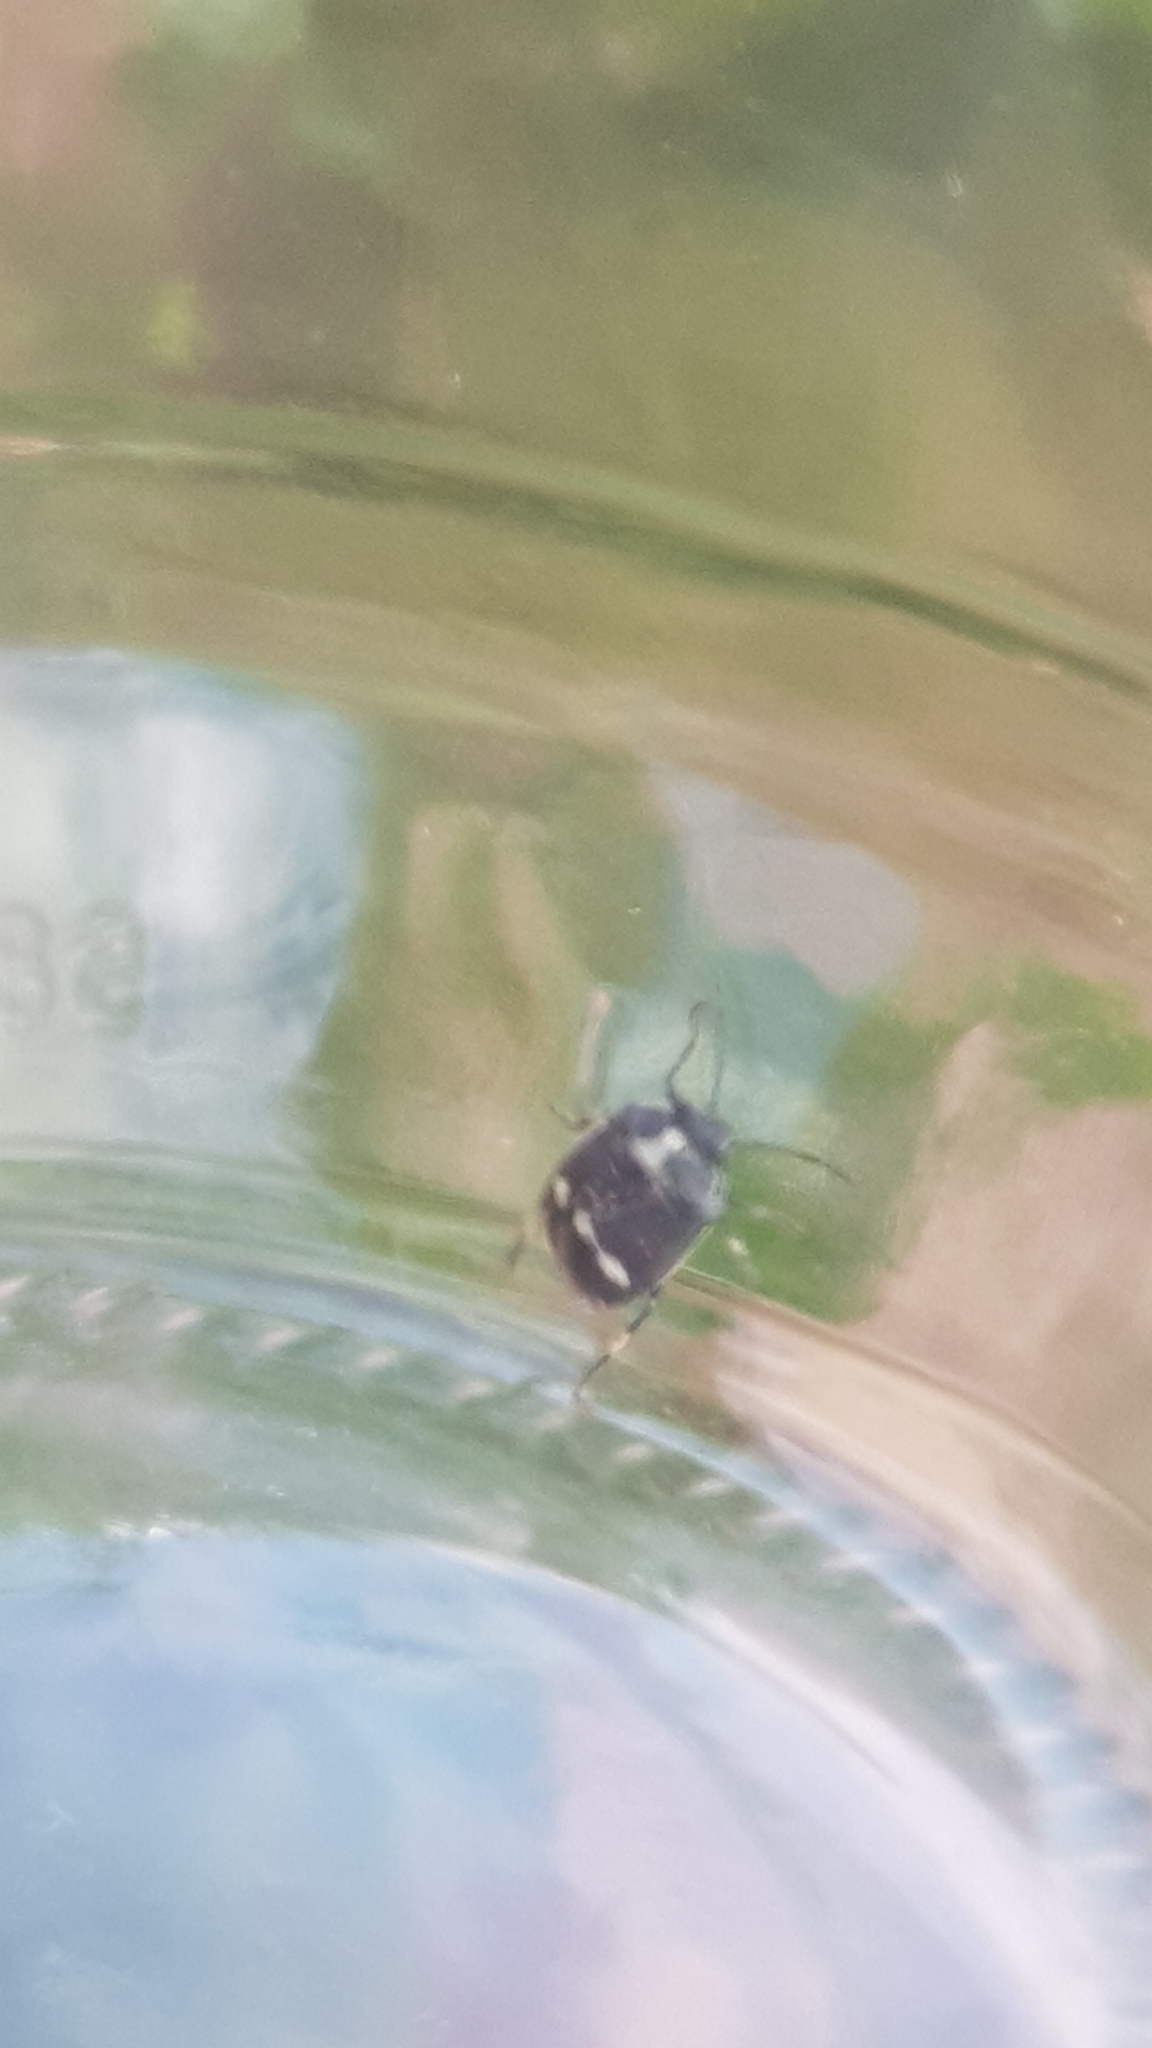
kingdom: Animalia
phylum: Arthropoda
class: Insecta
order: Hemiptera
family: Pentatomidae
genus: Eurydema
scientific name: Eurydema oleracea
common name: Cabbage bug
